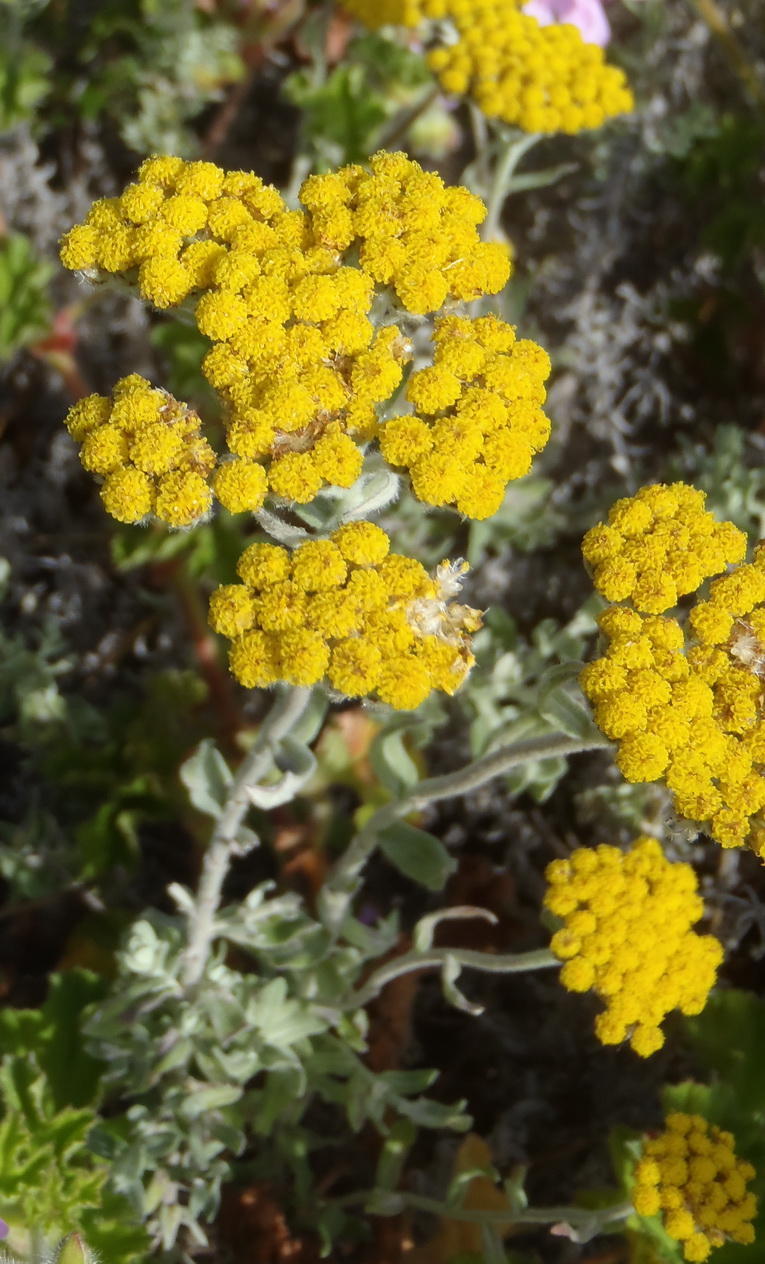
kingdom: Plantae
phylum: Tracheophyta
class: Magnoliopsida
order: Asterales
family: Asteraceae
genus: Helichrysum
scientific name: Helichrysum dasyanthum
